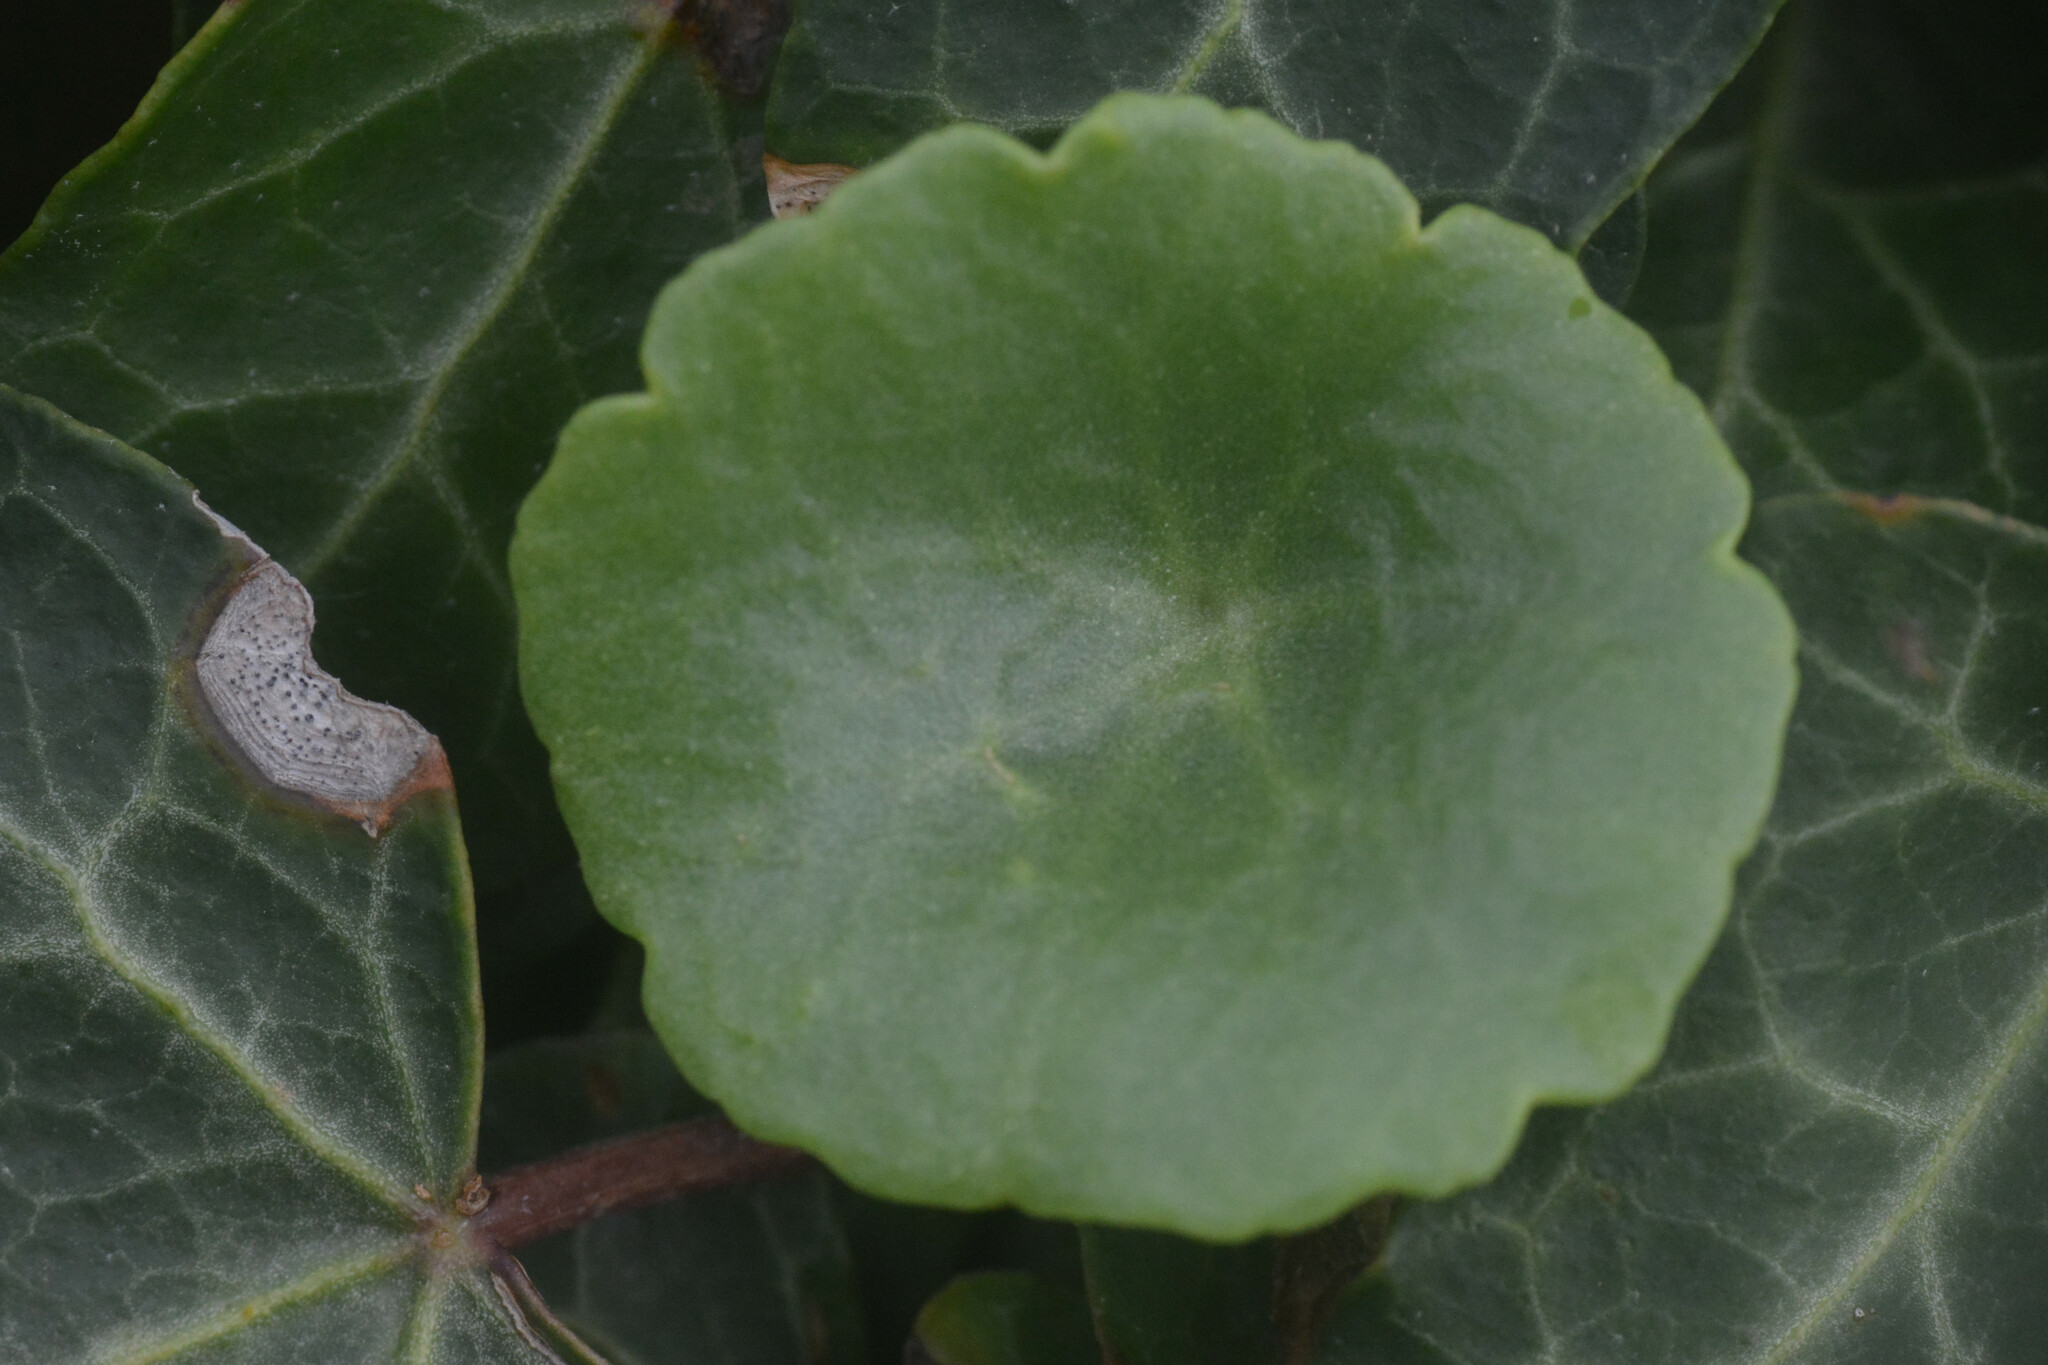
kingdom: Plantae
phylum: Tracheophyta
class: Magnoliopsida
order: Saxifragales
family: Crassulaceae
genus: Umbilicus
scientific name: Umbilicus rupestris
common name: Navelwort
